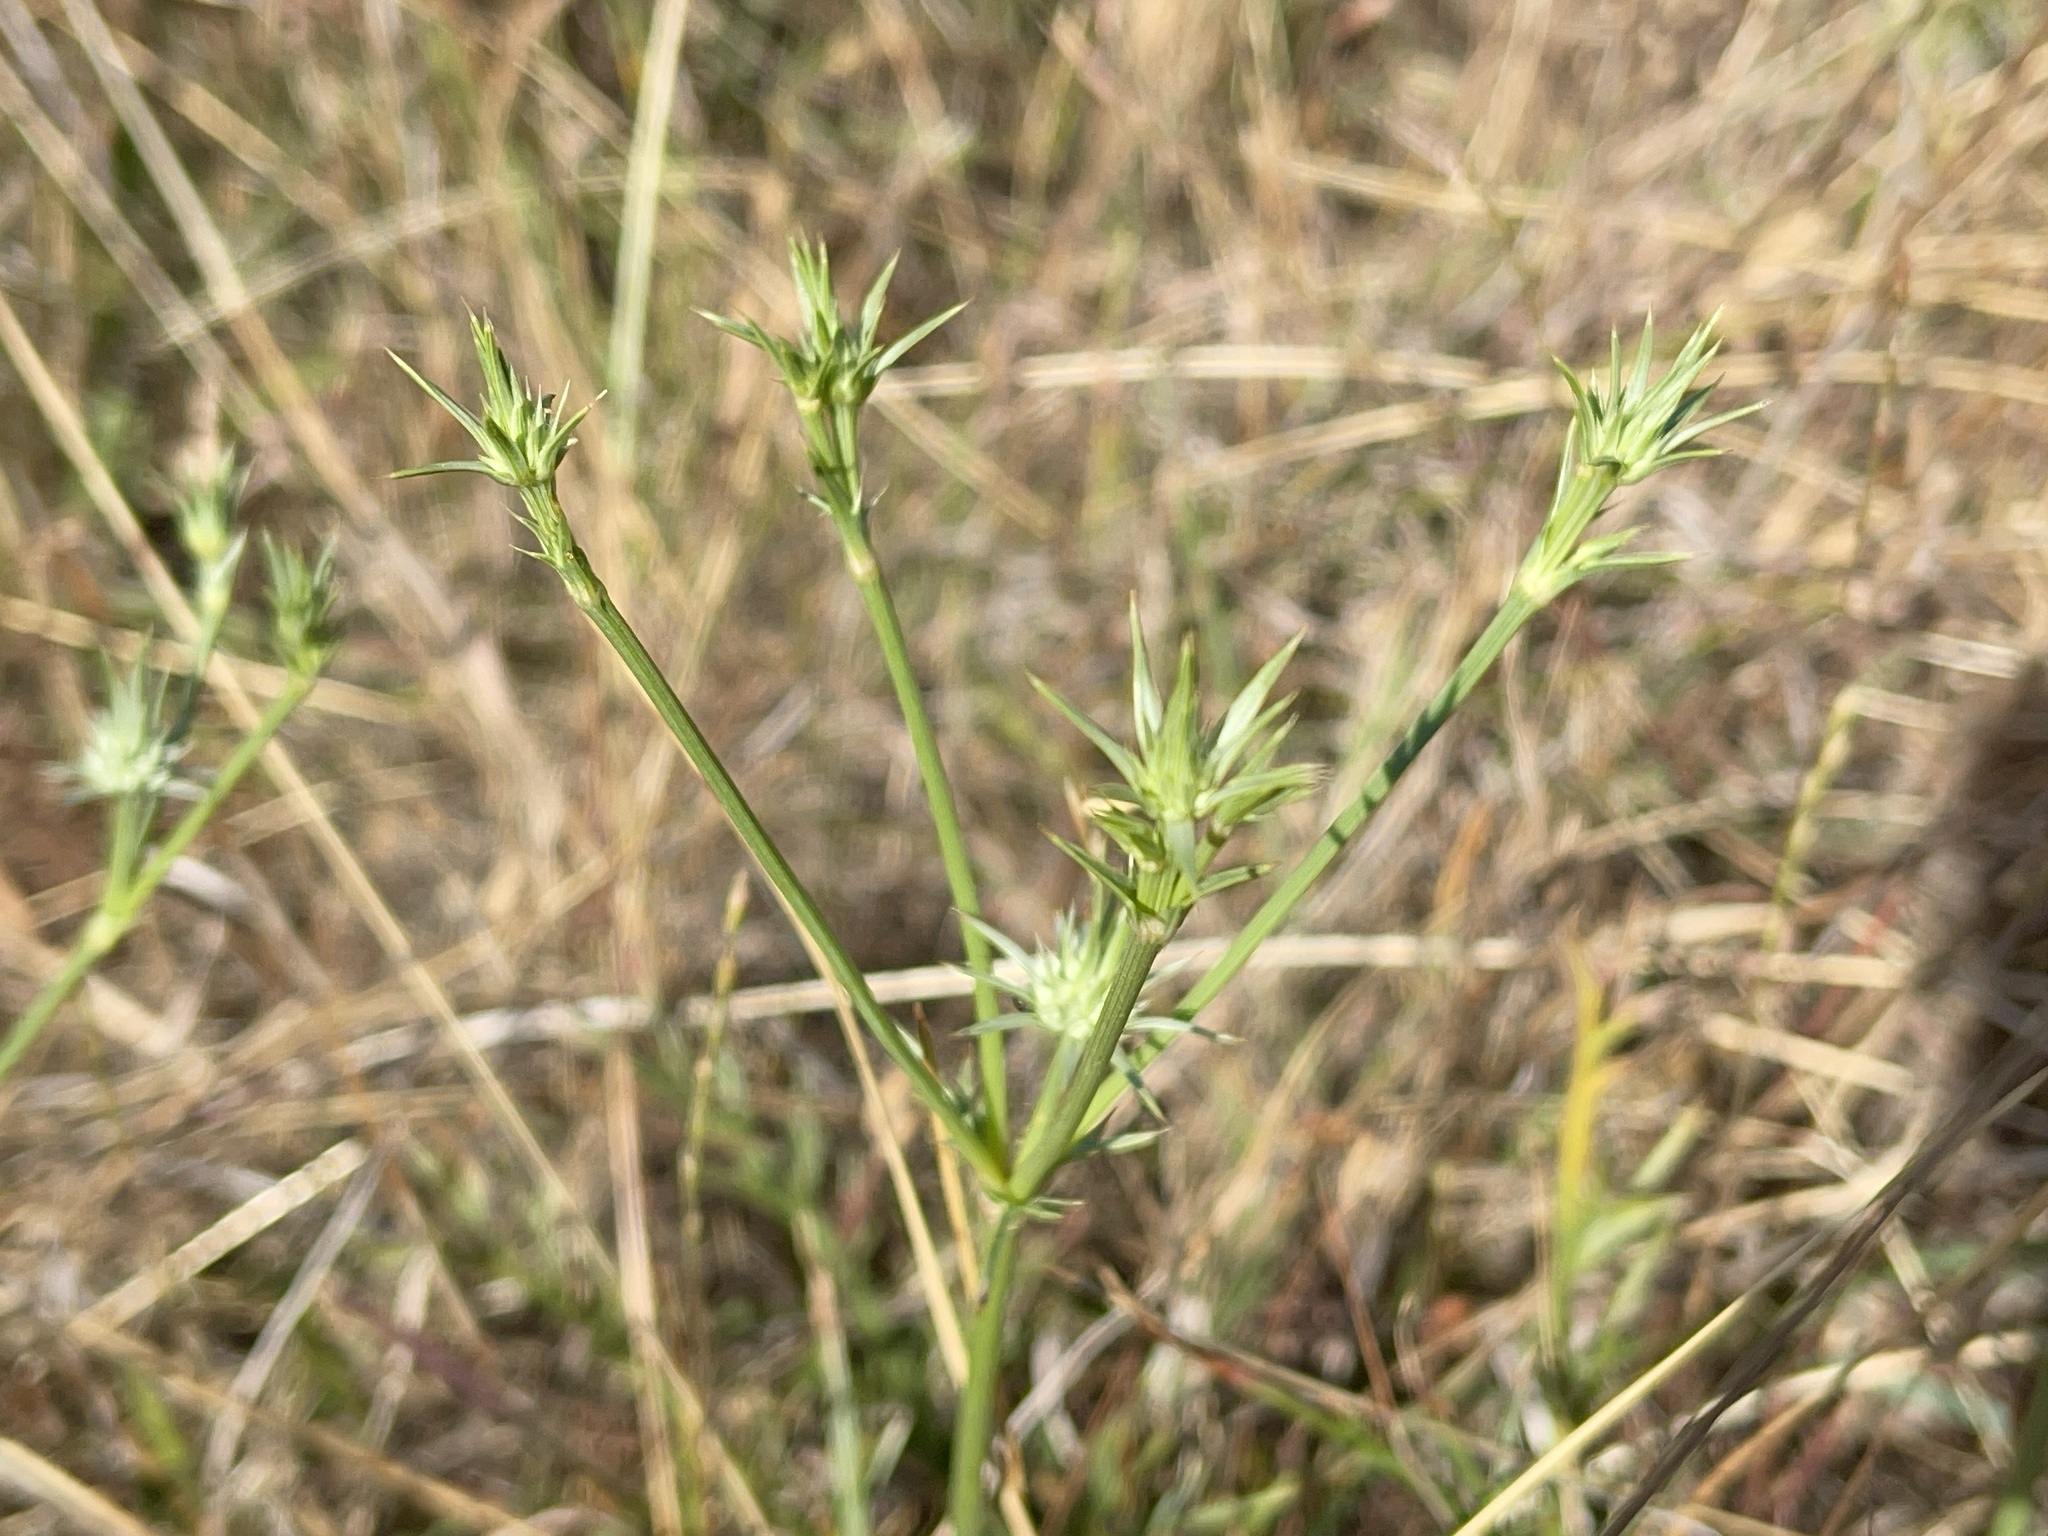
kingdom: Plantae
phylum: Tracheophyta
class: Magnoliopsida
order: Apiales
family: Apiaceae
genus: Eryngium
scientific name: Eryngium ovinum
